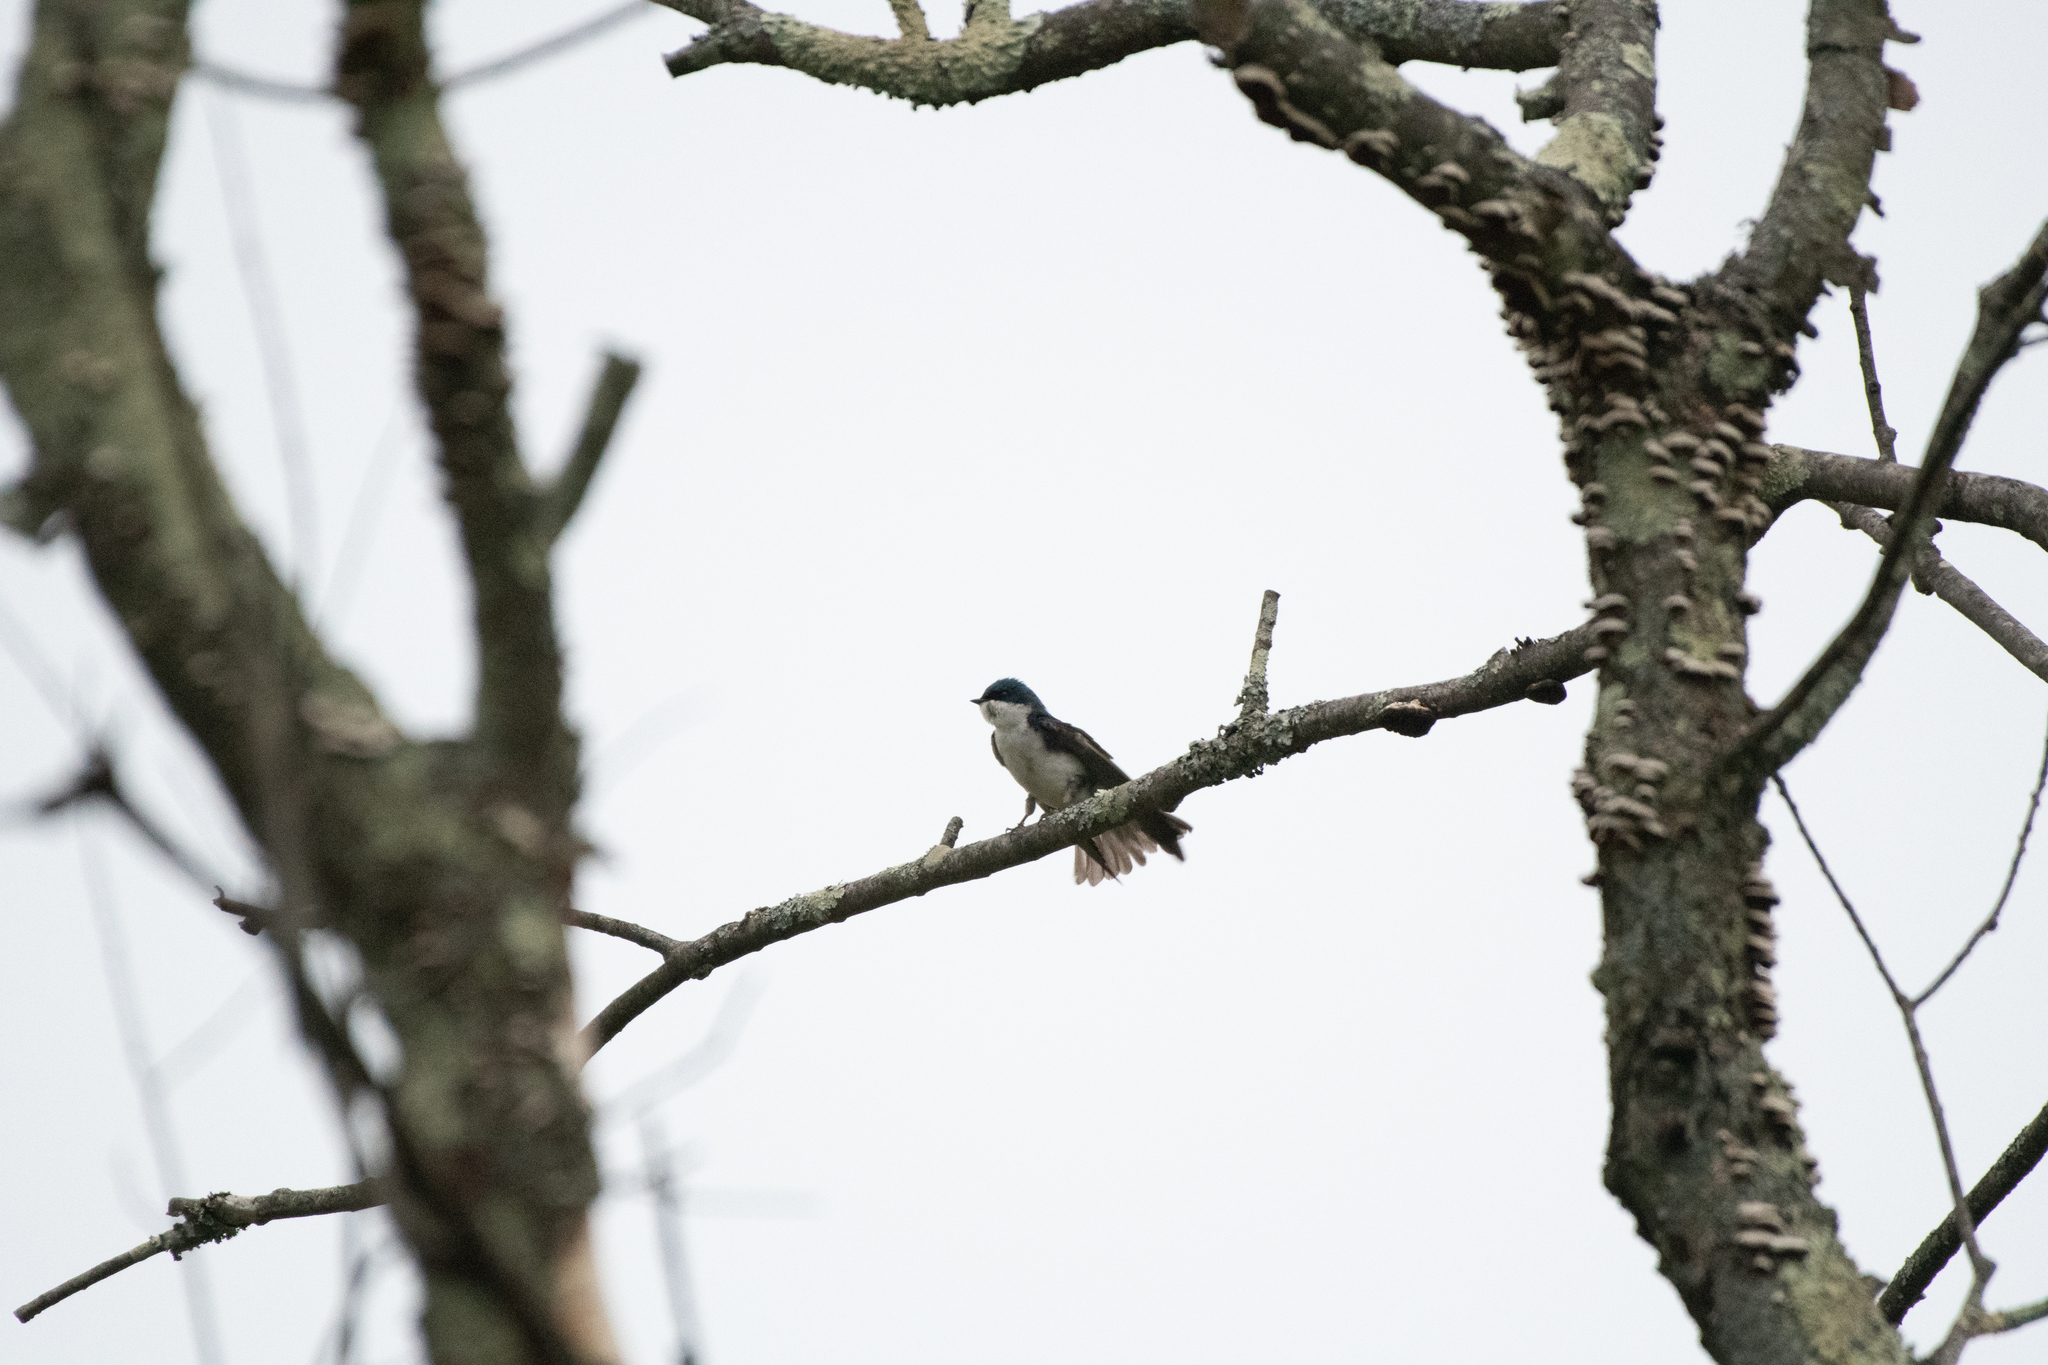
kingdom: Animalia
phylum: Chordata
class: Aves
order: Passeriformes
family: Hirundinidae
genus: Tachycineta
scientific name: Tachycineta bicolor
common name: Tree swallow
